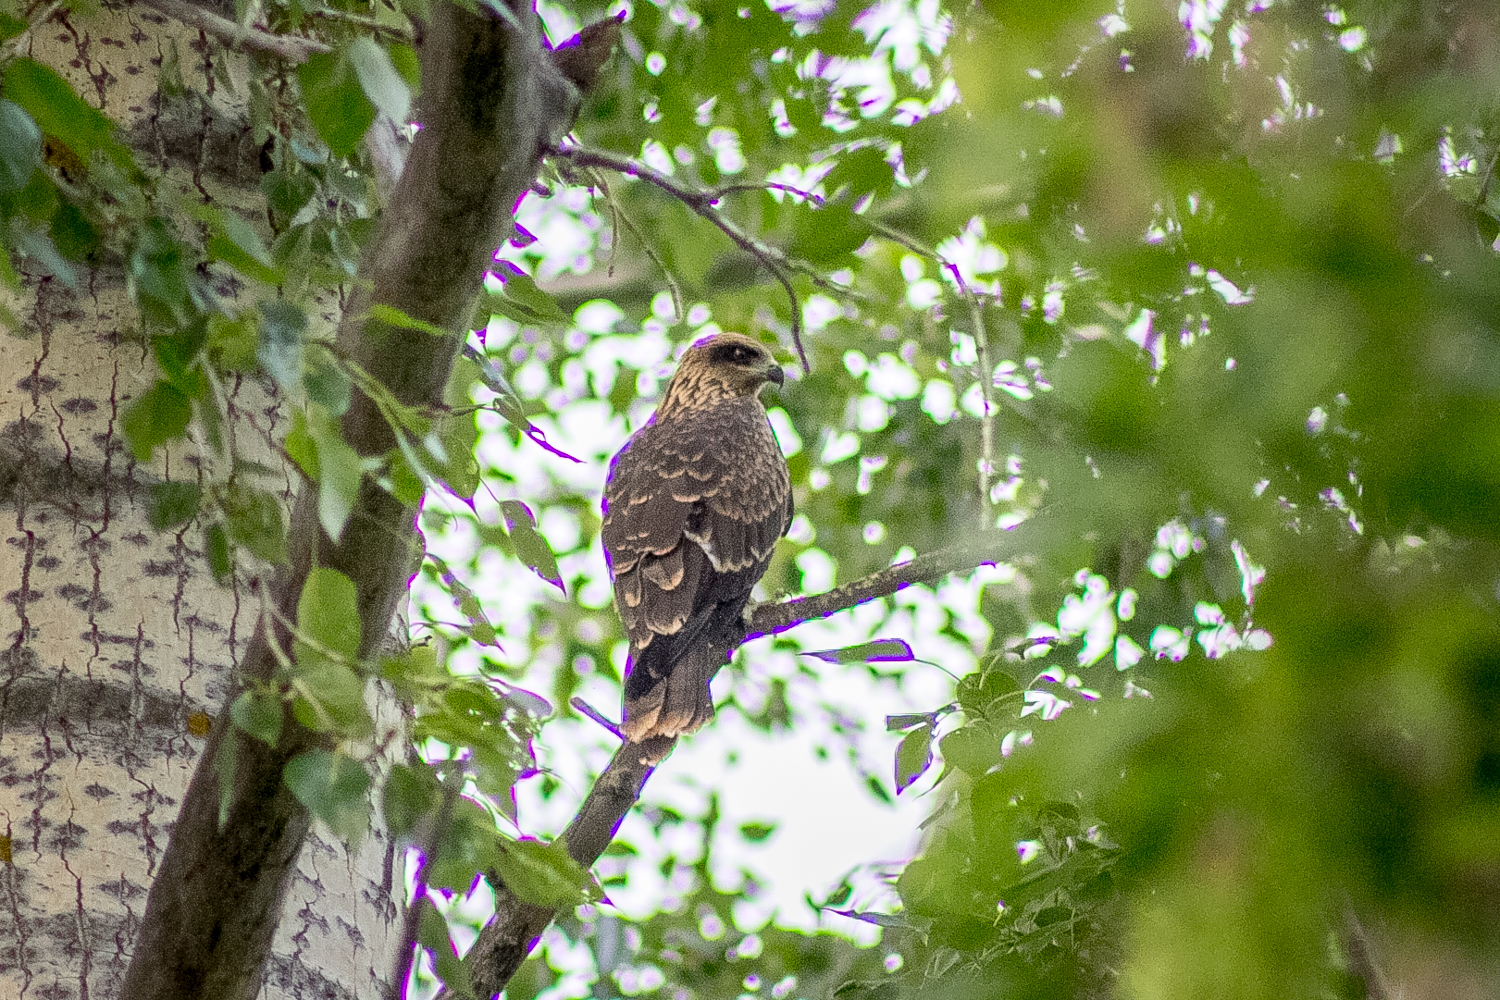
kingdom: Animalia
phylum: Chordata
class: Aves
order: Accipitriformes
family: Accipitridae
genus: Milvus
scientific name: Milvus migrans
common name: Black kite
